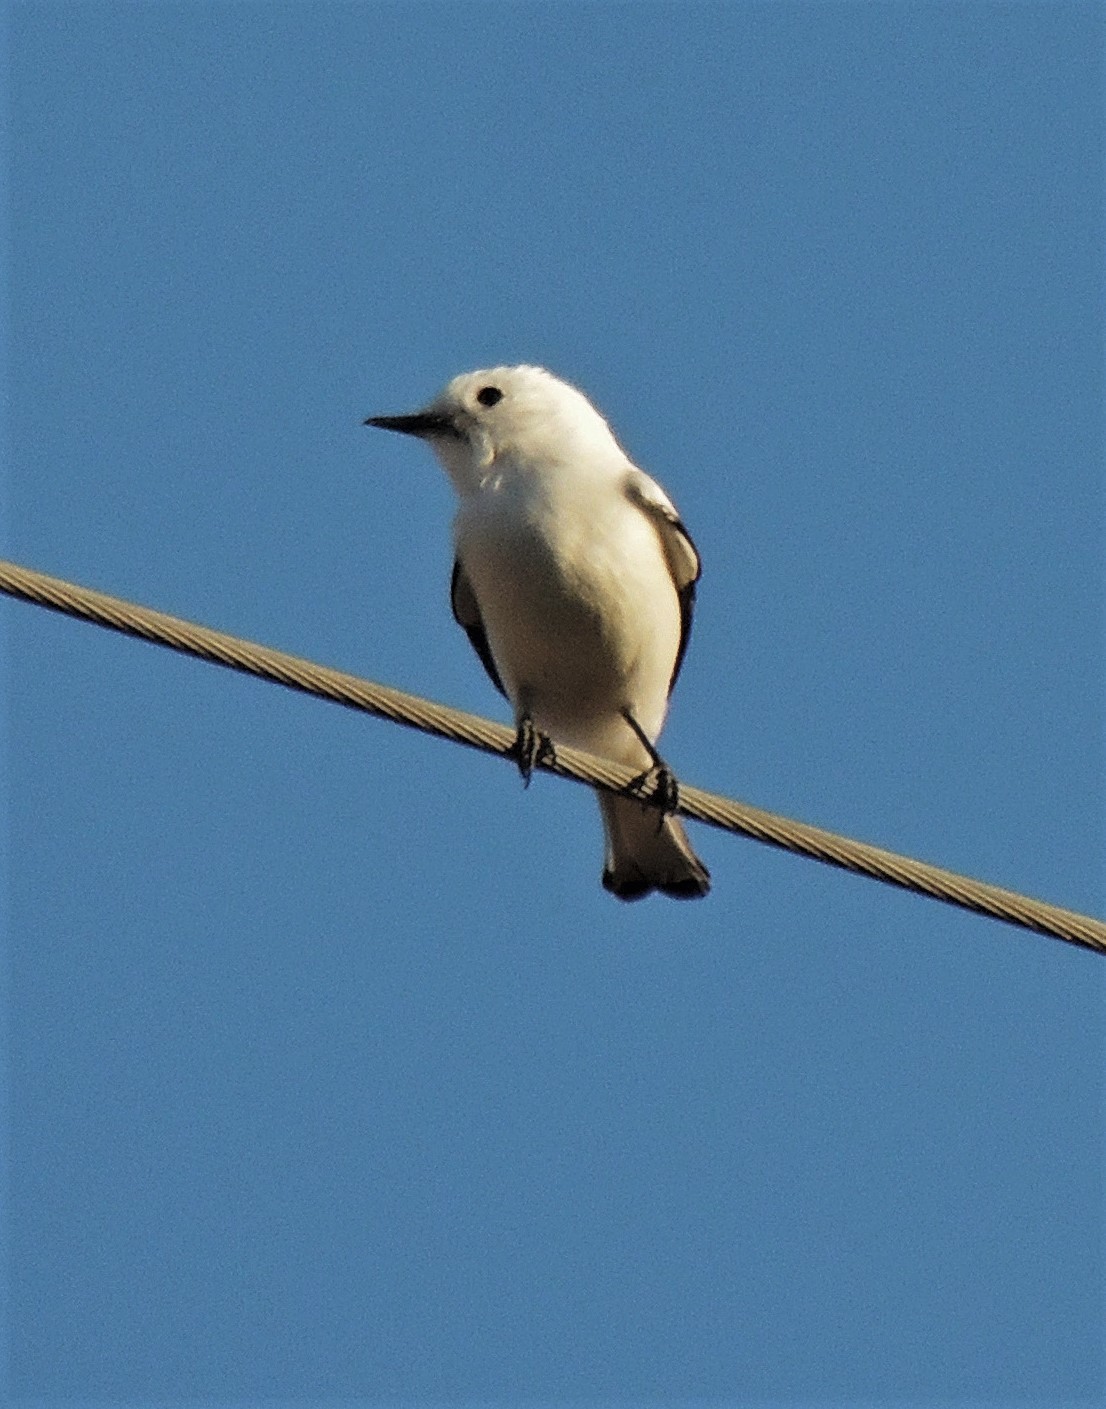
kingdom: Animalia
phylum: Chordata
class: Aves
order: Passeriformes
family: Tyrannidae
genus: Xolmis
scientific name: Xolmis irupero
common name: White monjita
